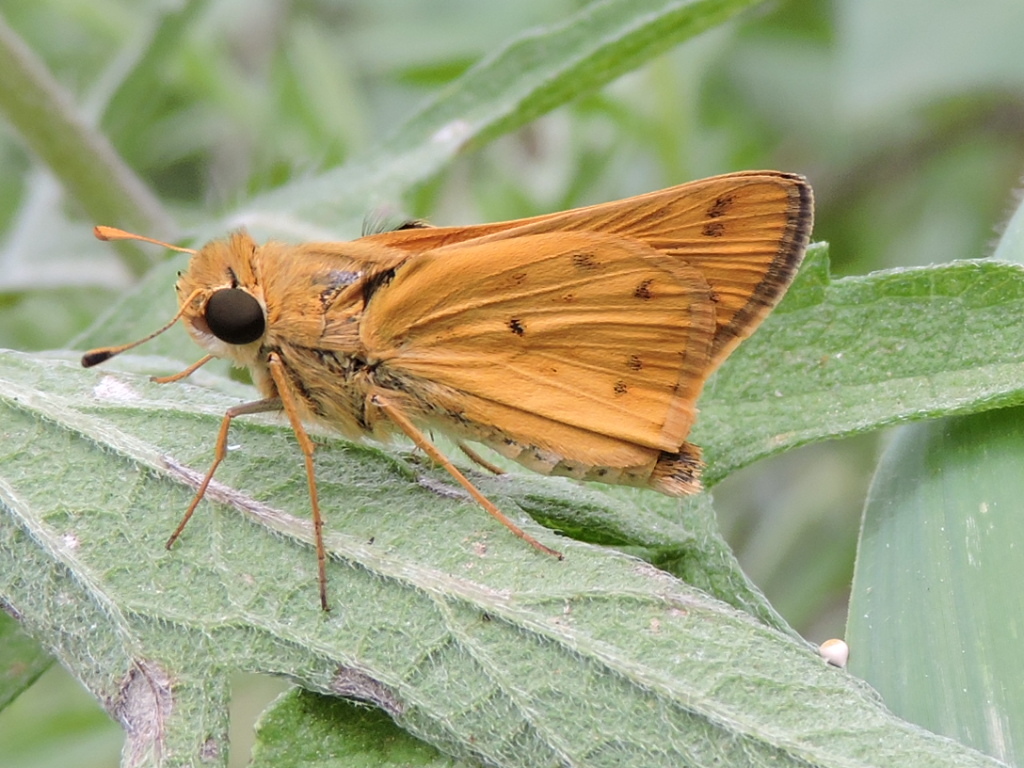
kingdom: Animalia
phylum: Arthropoda
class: Insecta
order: Lepidoptera
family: Hesperiidae
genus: Hylephila
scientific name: Hylephila phyleus
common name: Fiery skipper
